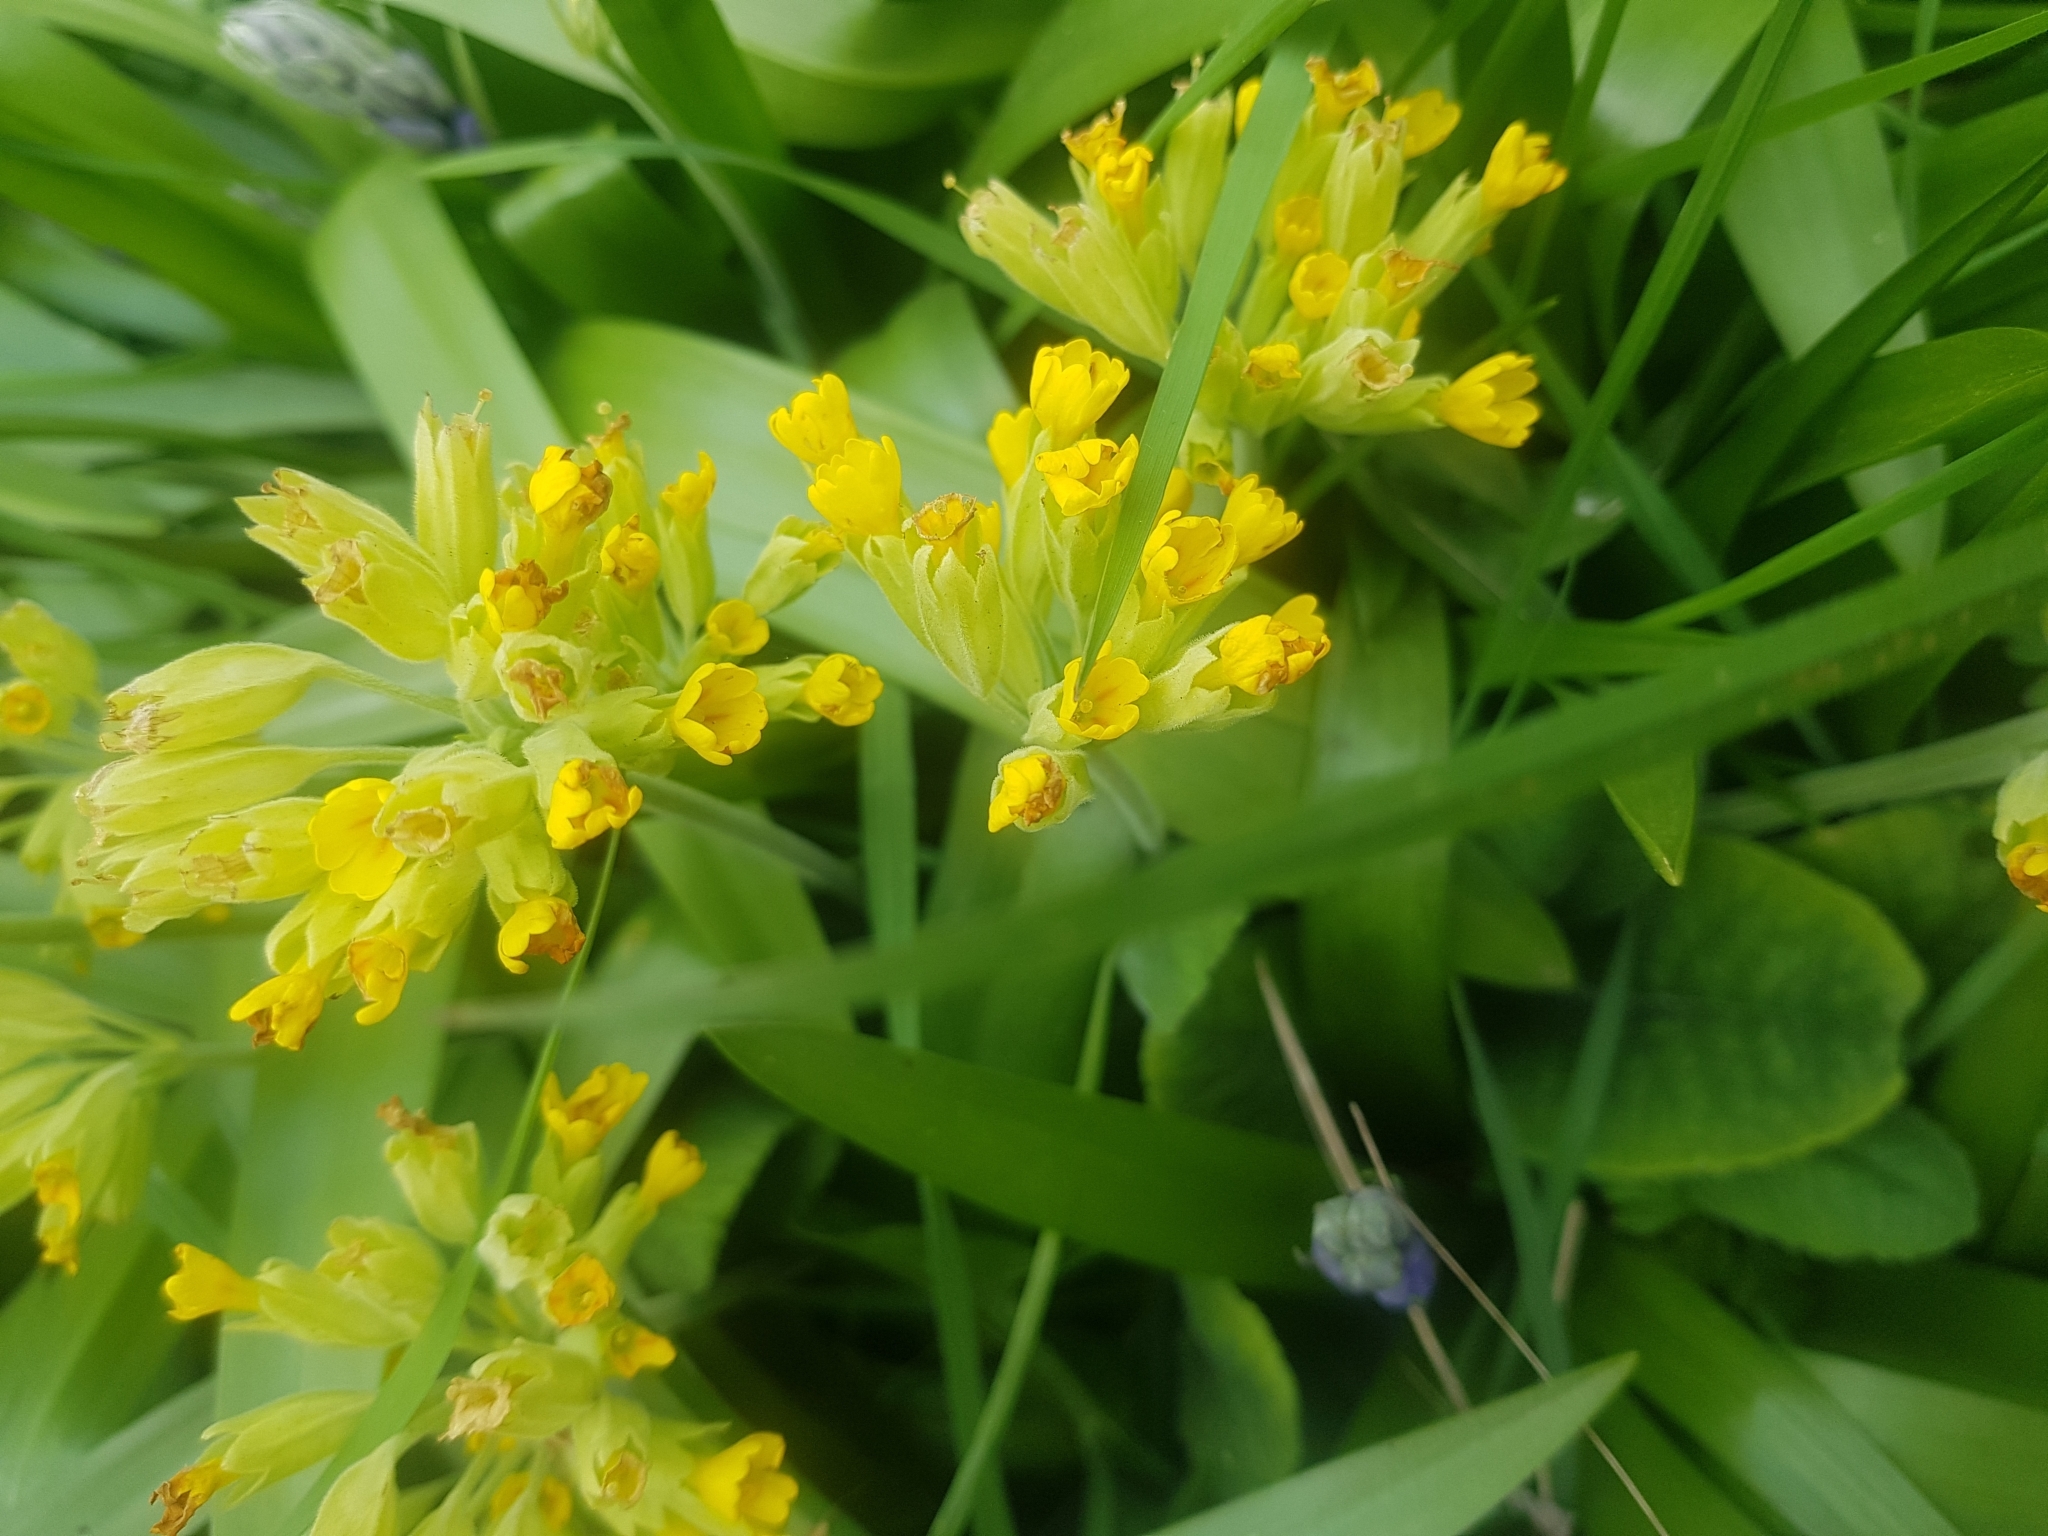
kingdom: Plantae
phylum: Tracheophyta
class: Magnoliopsida
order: Ericales
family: Primulaceae
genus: Primula
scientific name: Primula veris
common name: Cowslip
